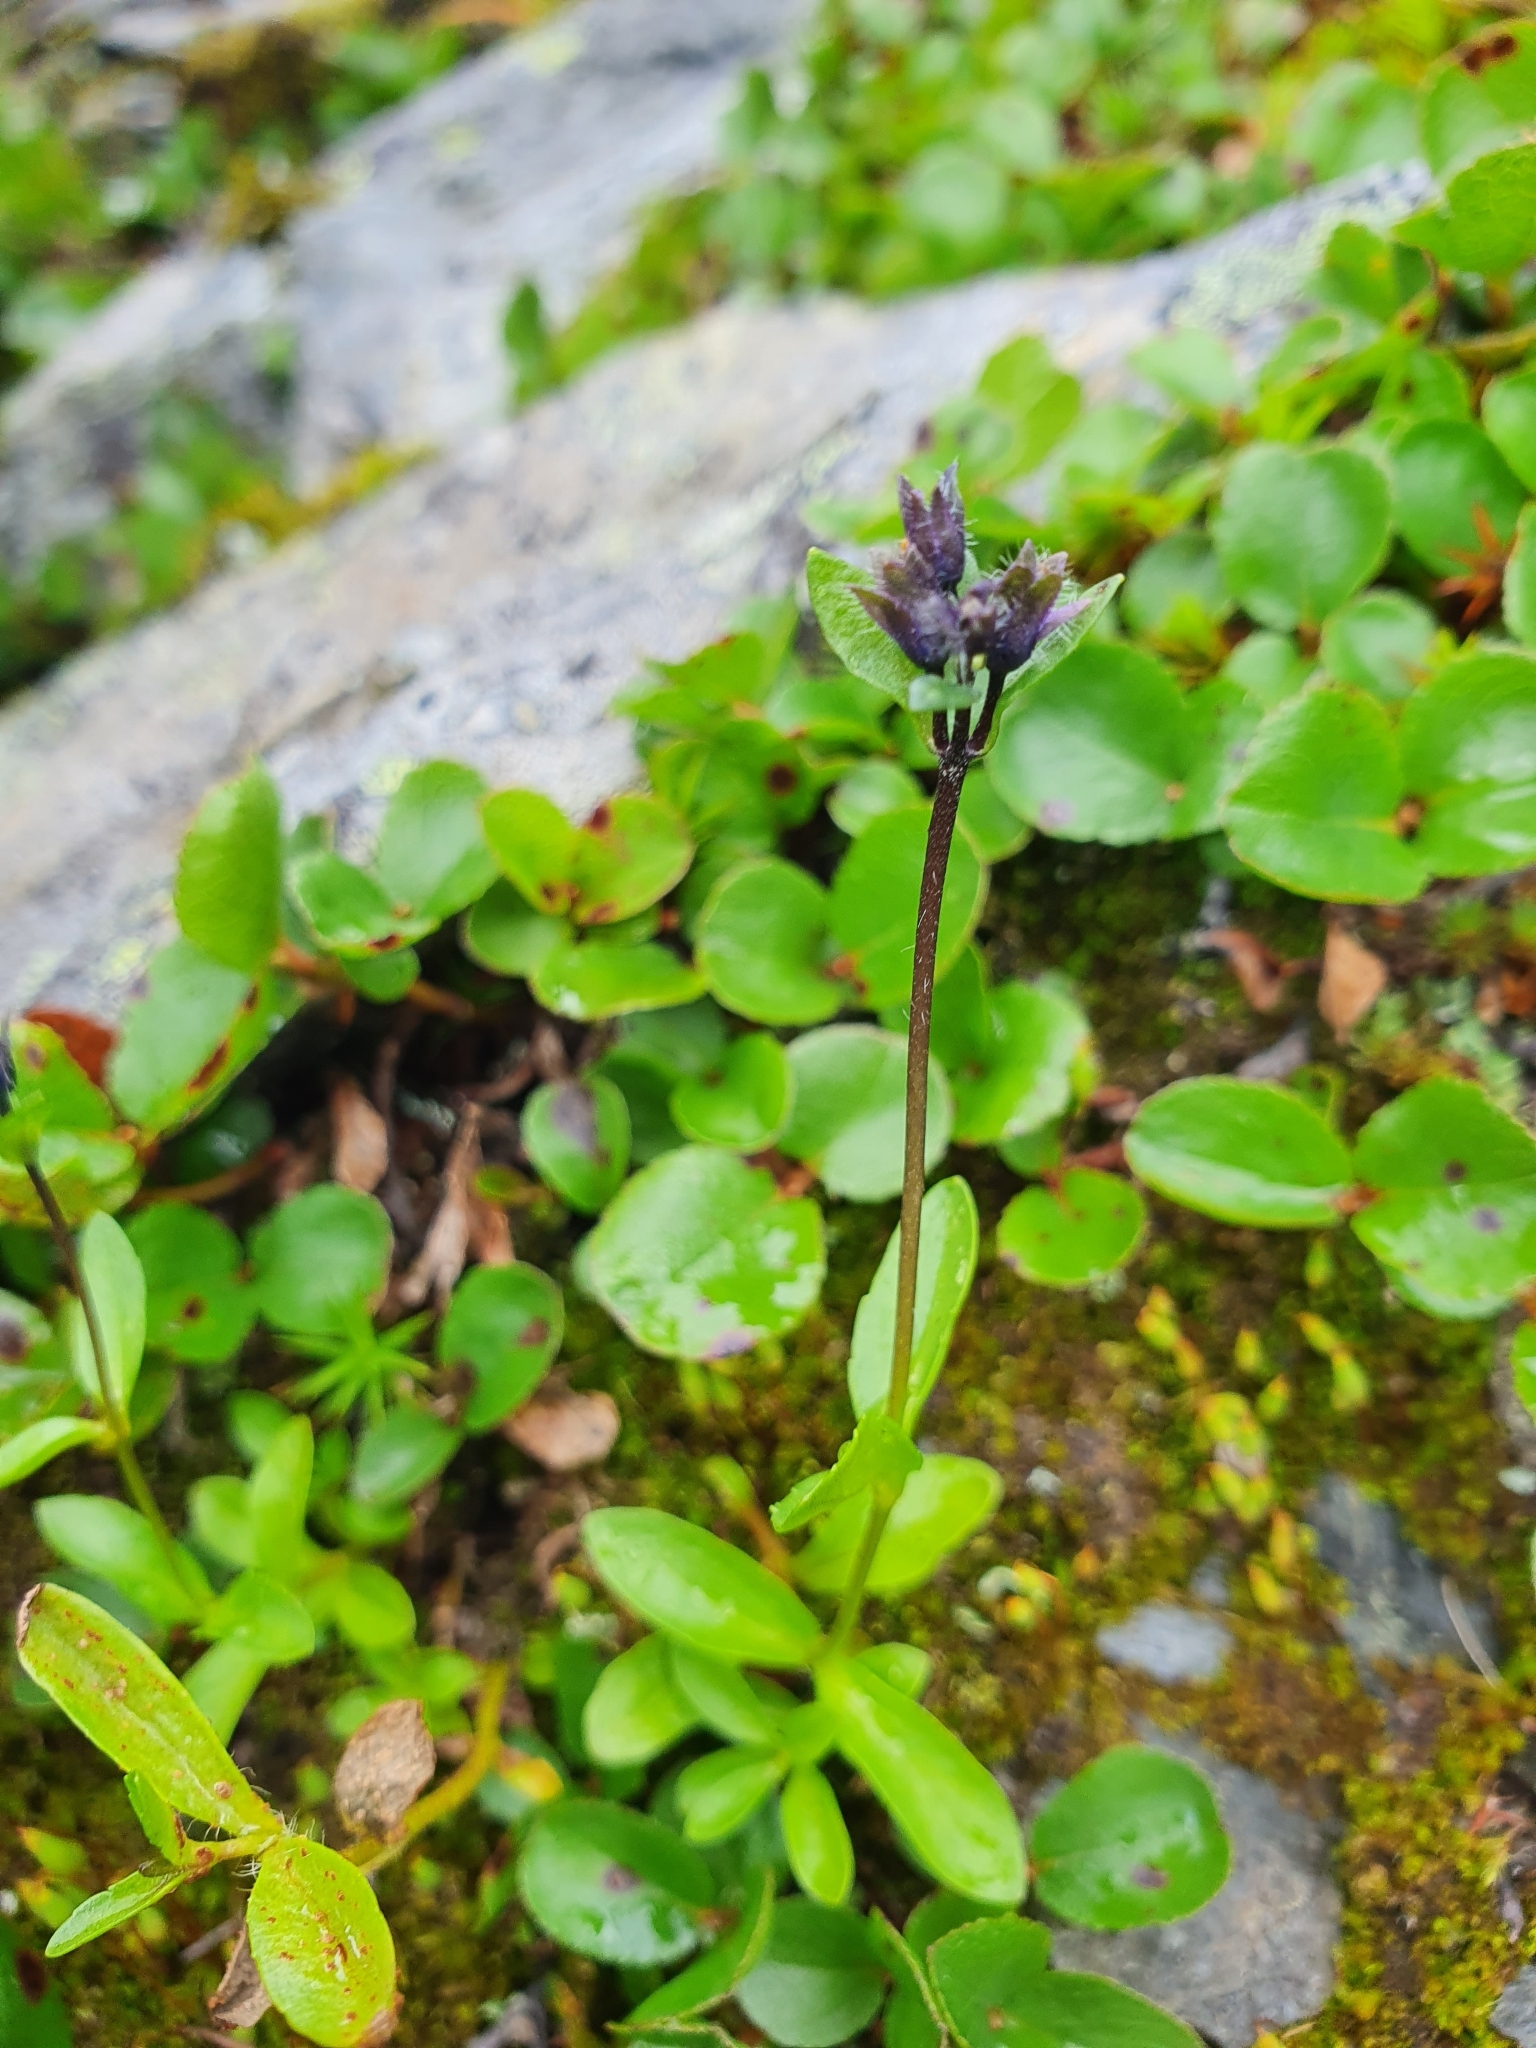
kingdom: Plantae
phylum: Tracheophyta
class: Magnoliopsida
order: Lamiales
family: Plantaginaceae
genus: Veronica
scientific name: Veronica alpina
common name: Alpine speedwell
